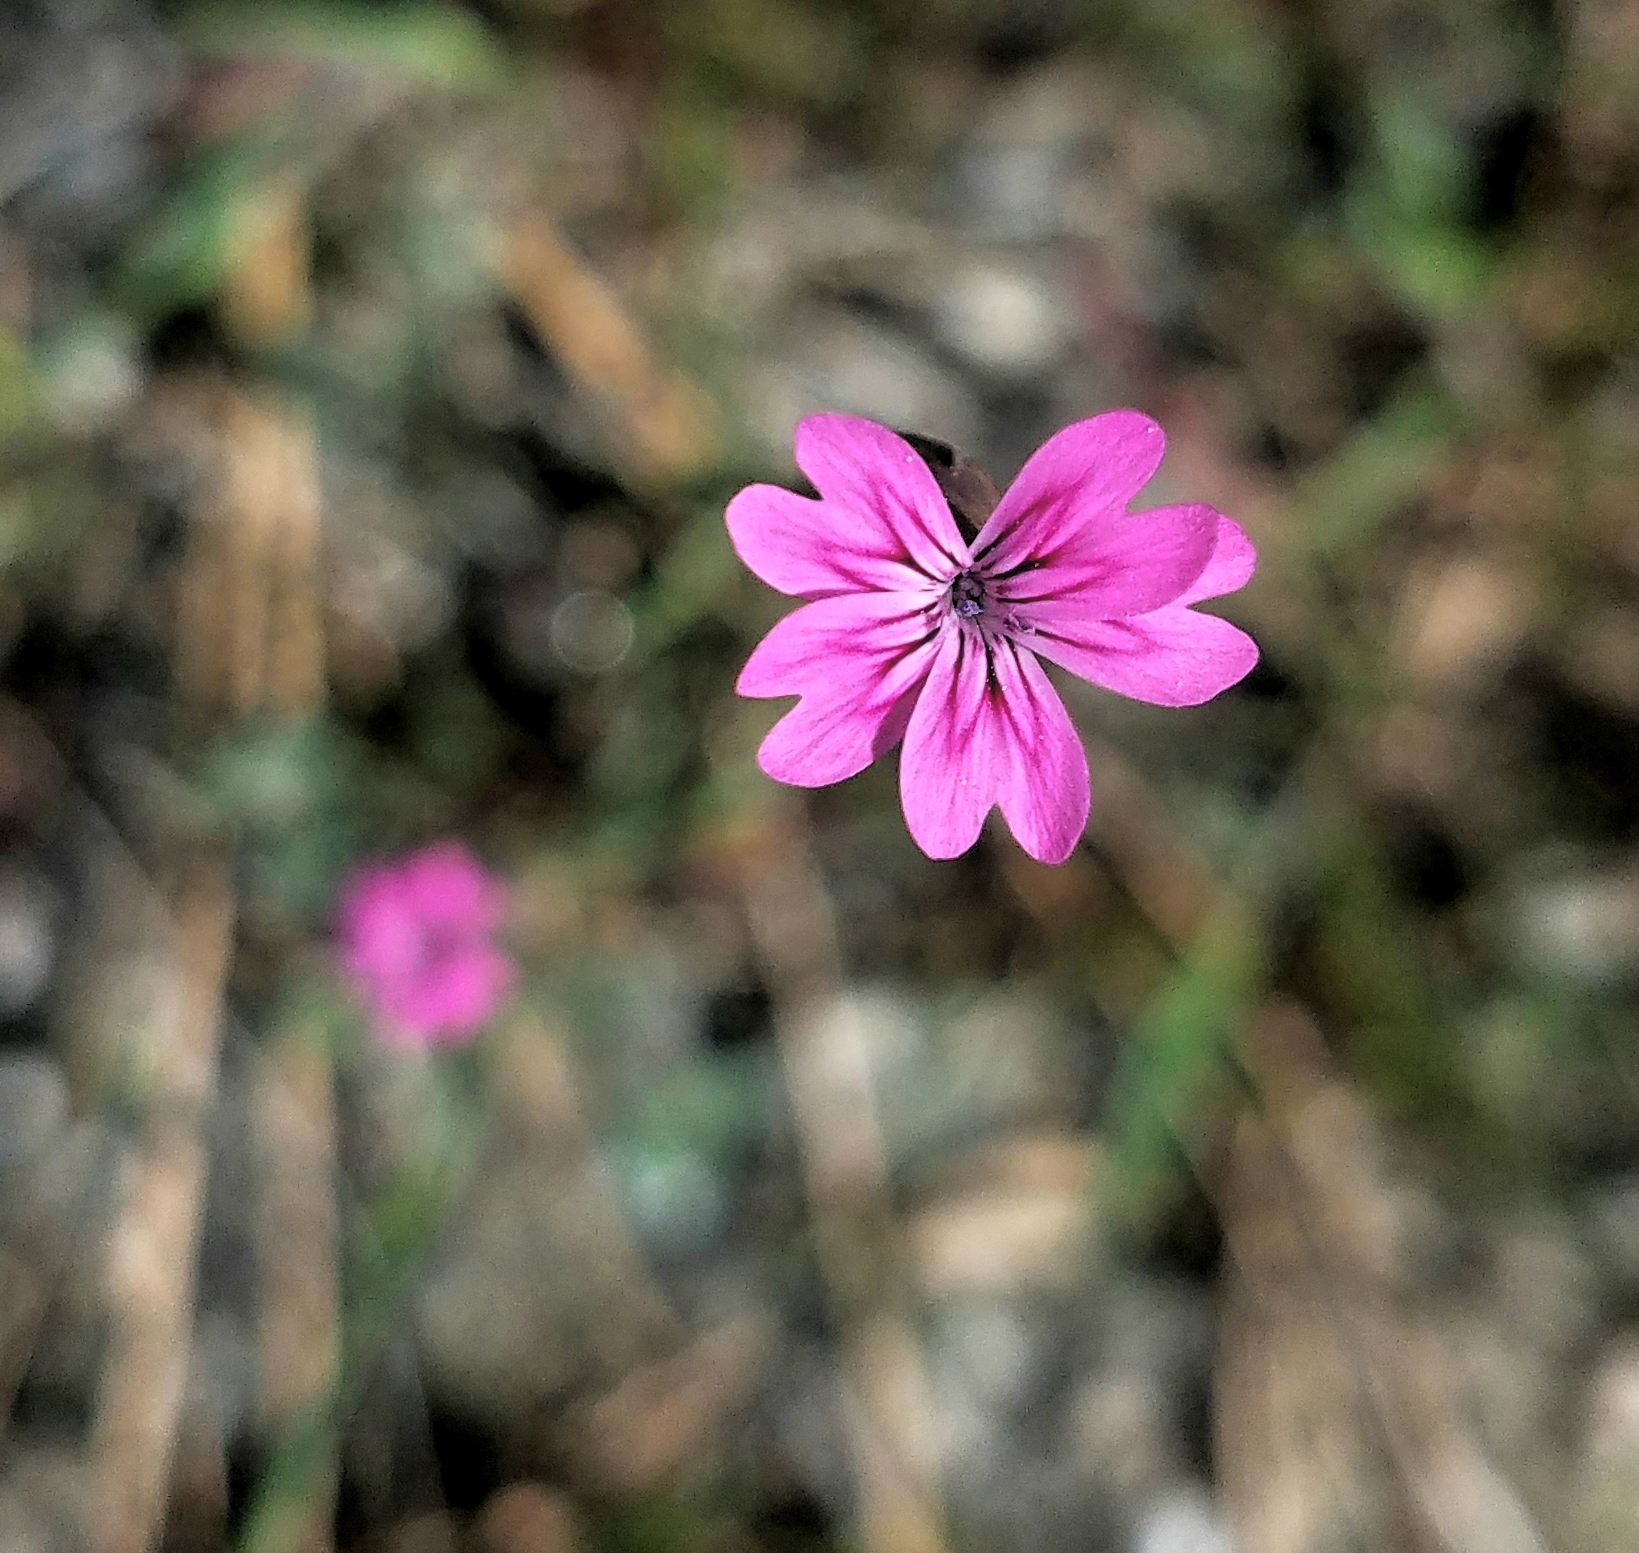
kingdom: Plantae
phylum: Tracheophyta
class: Magnoliopsida
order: Caryophyllales
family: Caryophyllaceae
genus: Petrorhagia
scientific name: Petrorhagia dubia
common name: Hairypink
